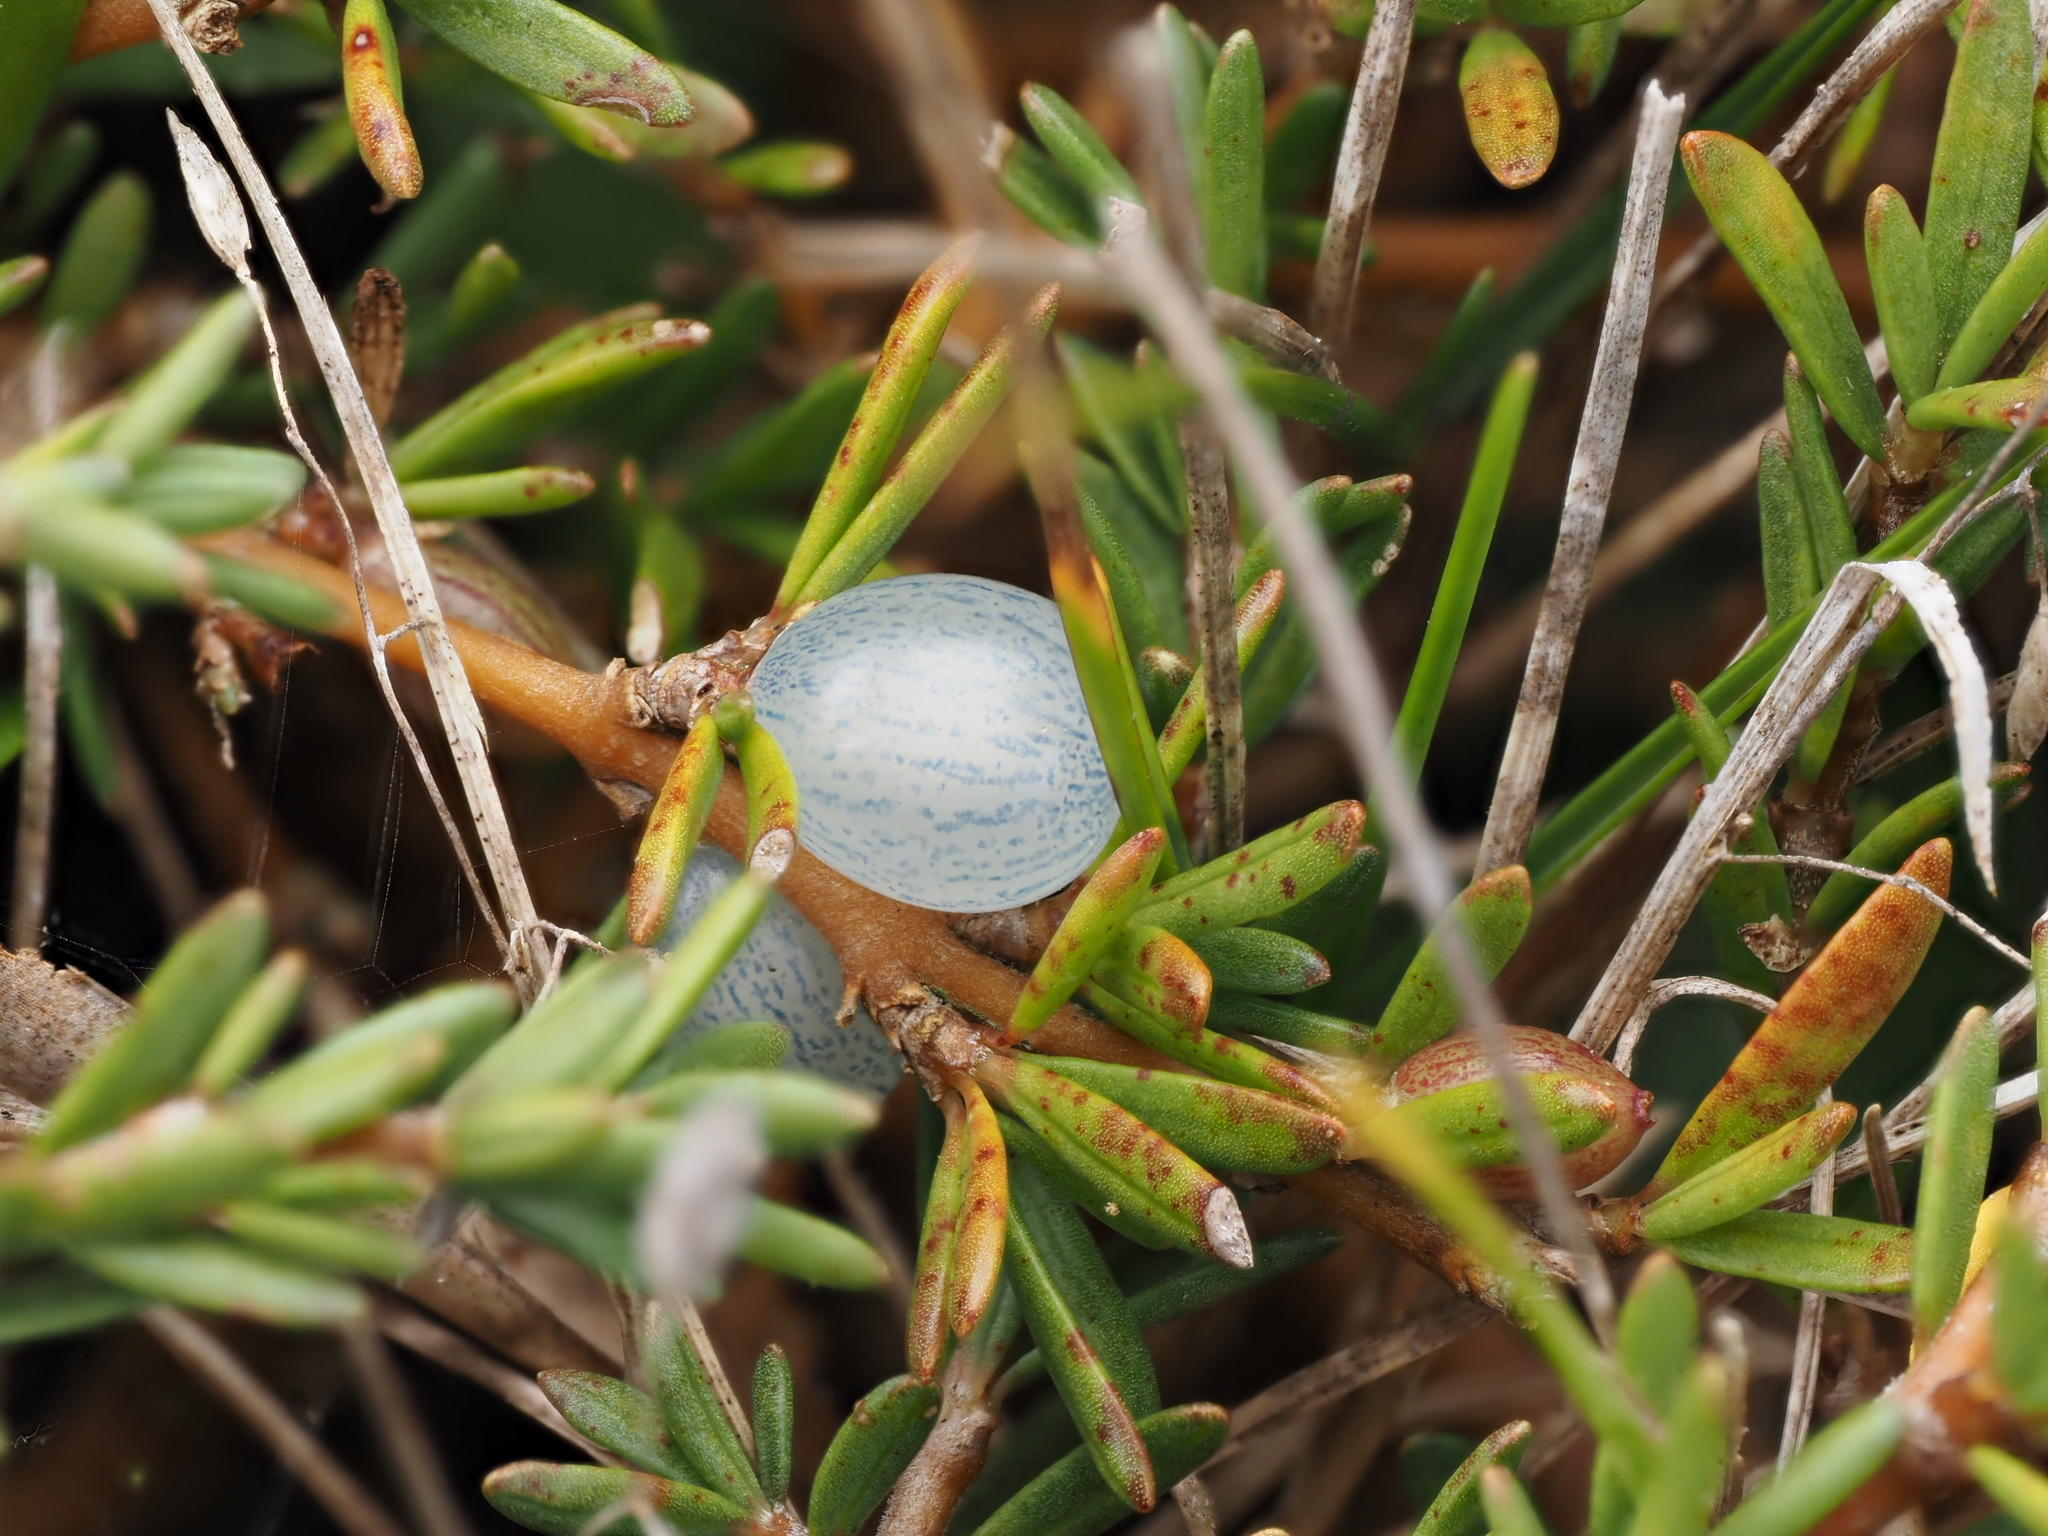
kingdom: Plantae
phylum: Tracheophyta
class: Magnoliopsida
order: Gentianales
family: Rubiaceae
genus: Coprosma
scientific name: Coprosma acerosa
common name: Sand coprosma
